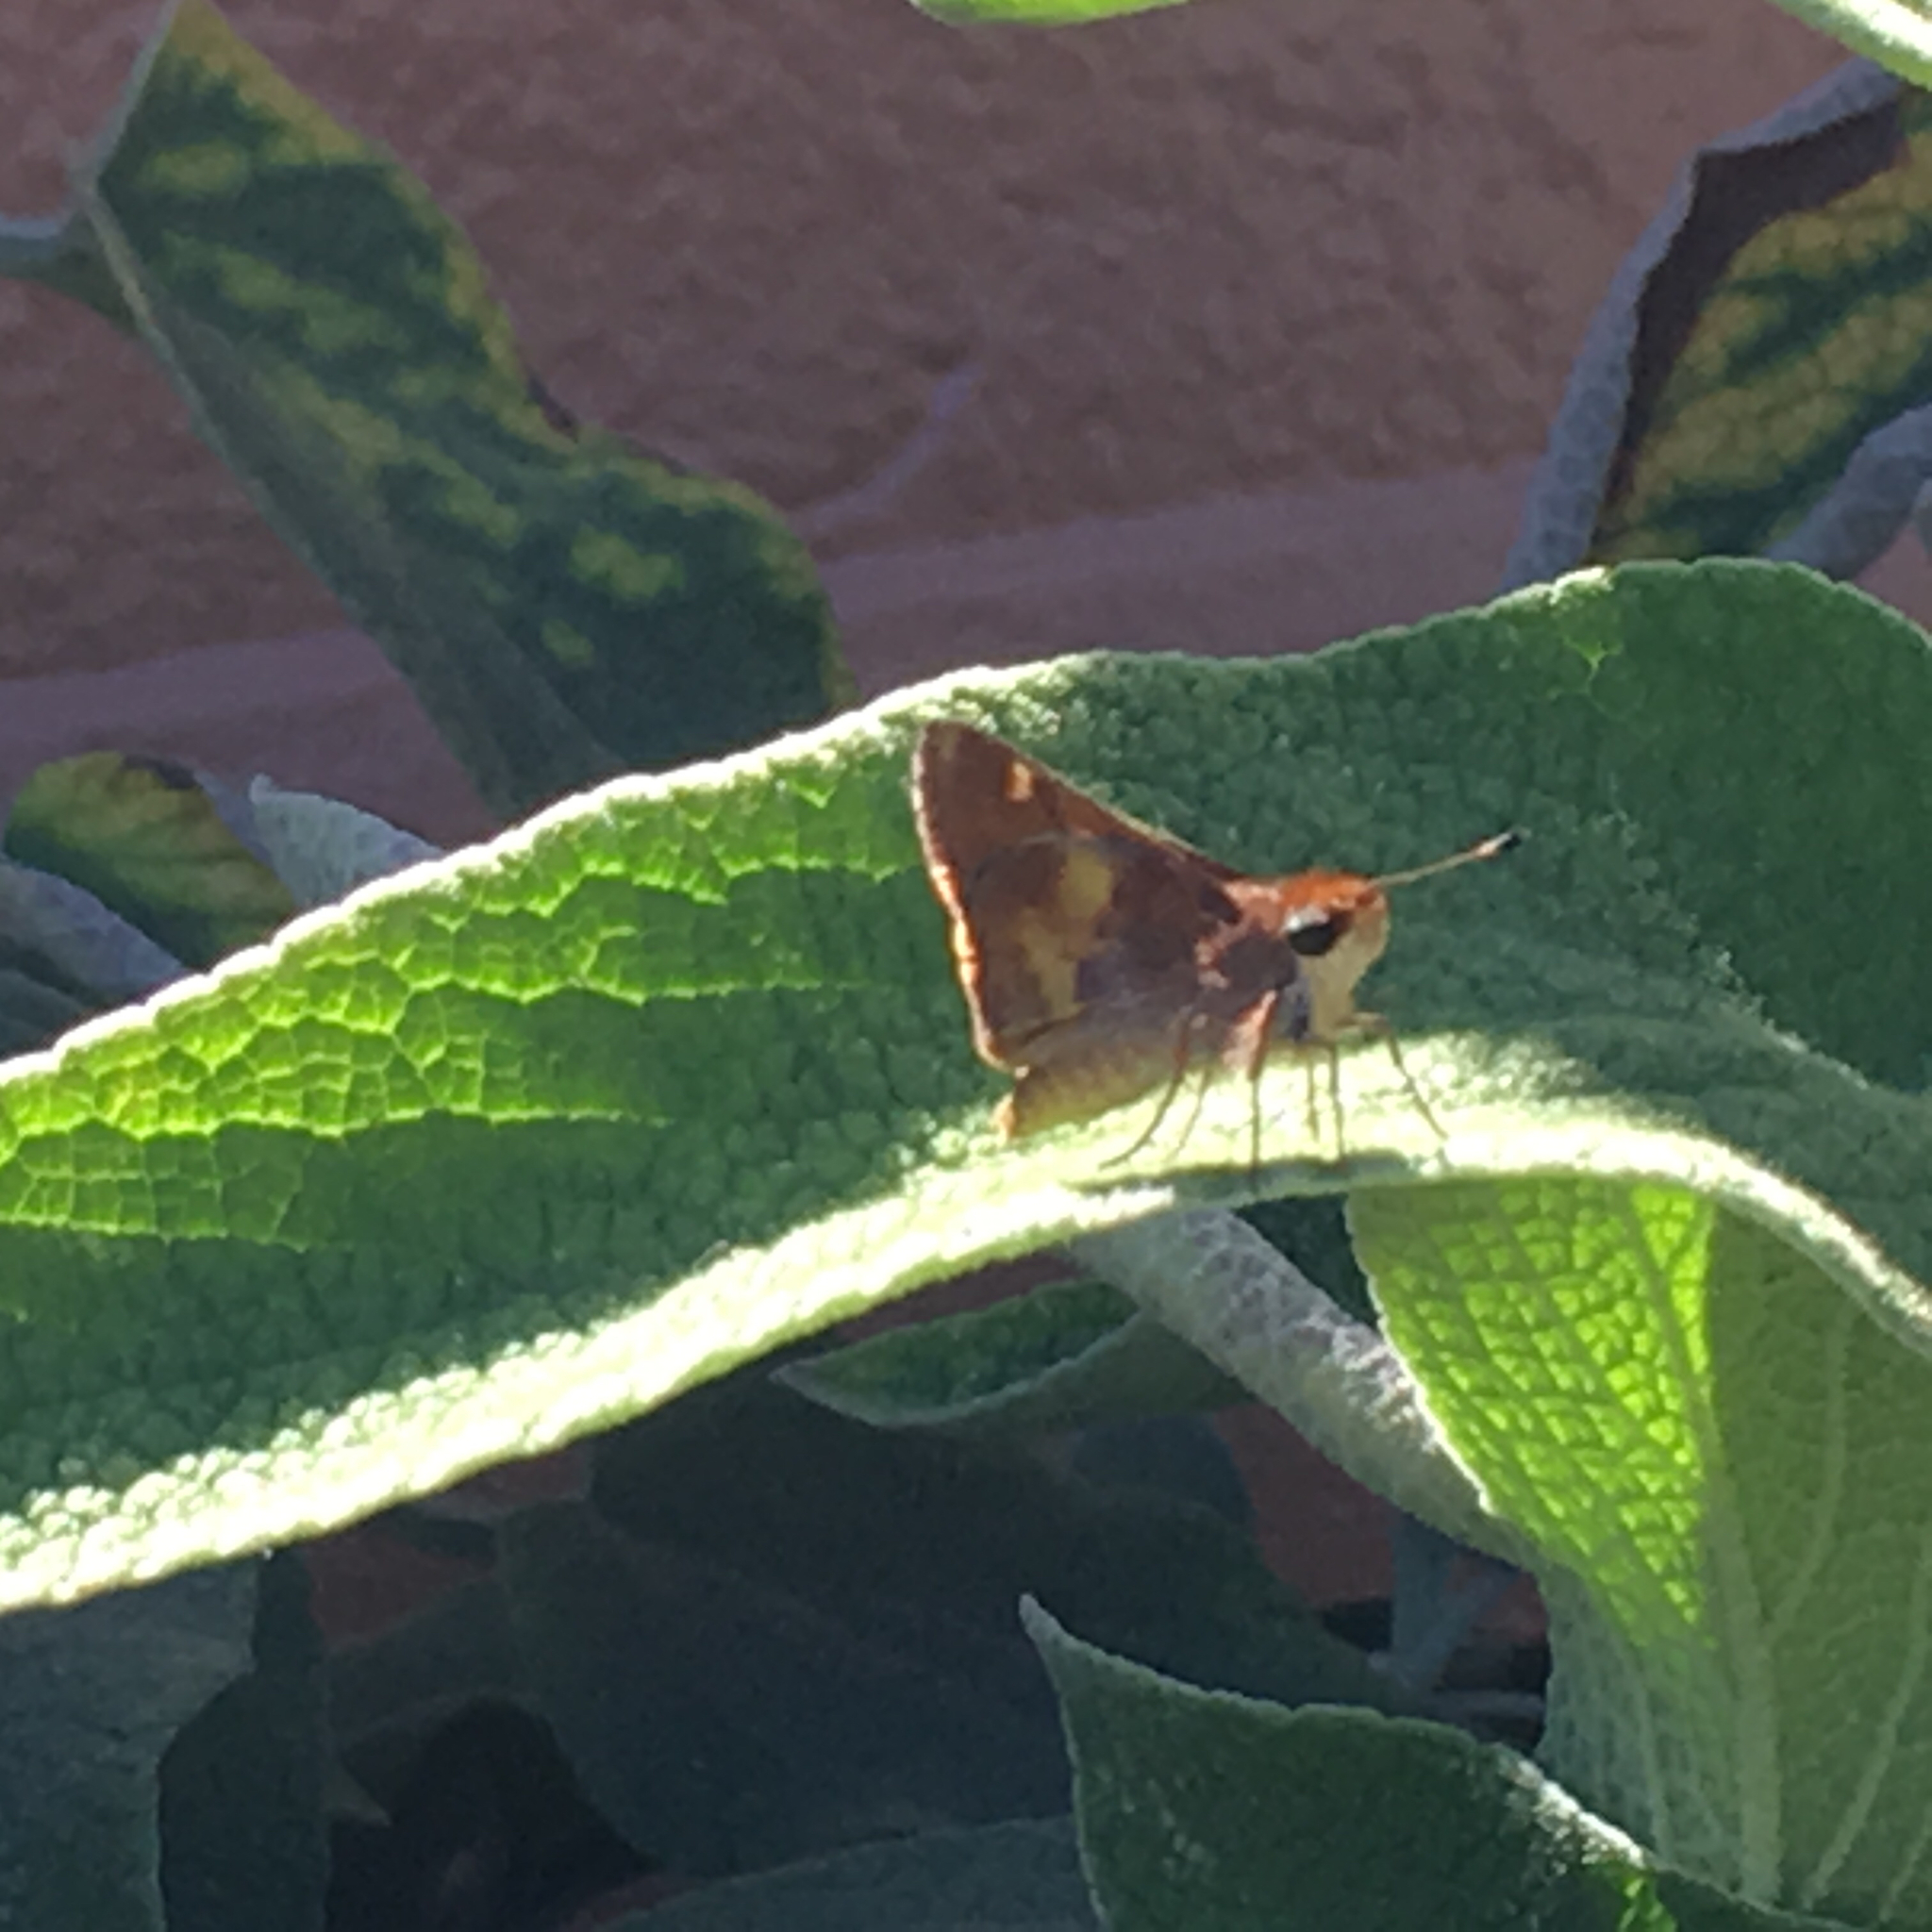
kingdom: Animalia
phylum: Arthropoda
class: Insecta
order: Lepidoptera
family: Hesperiidae
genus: Lon
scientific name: Lon melane
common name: Umber skipper
